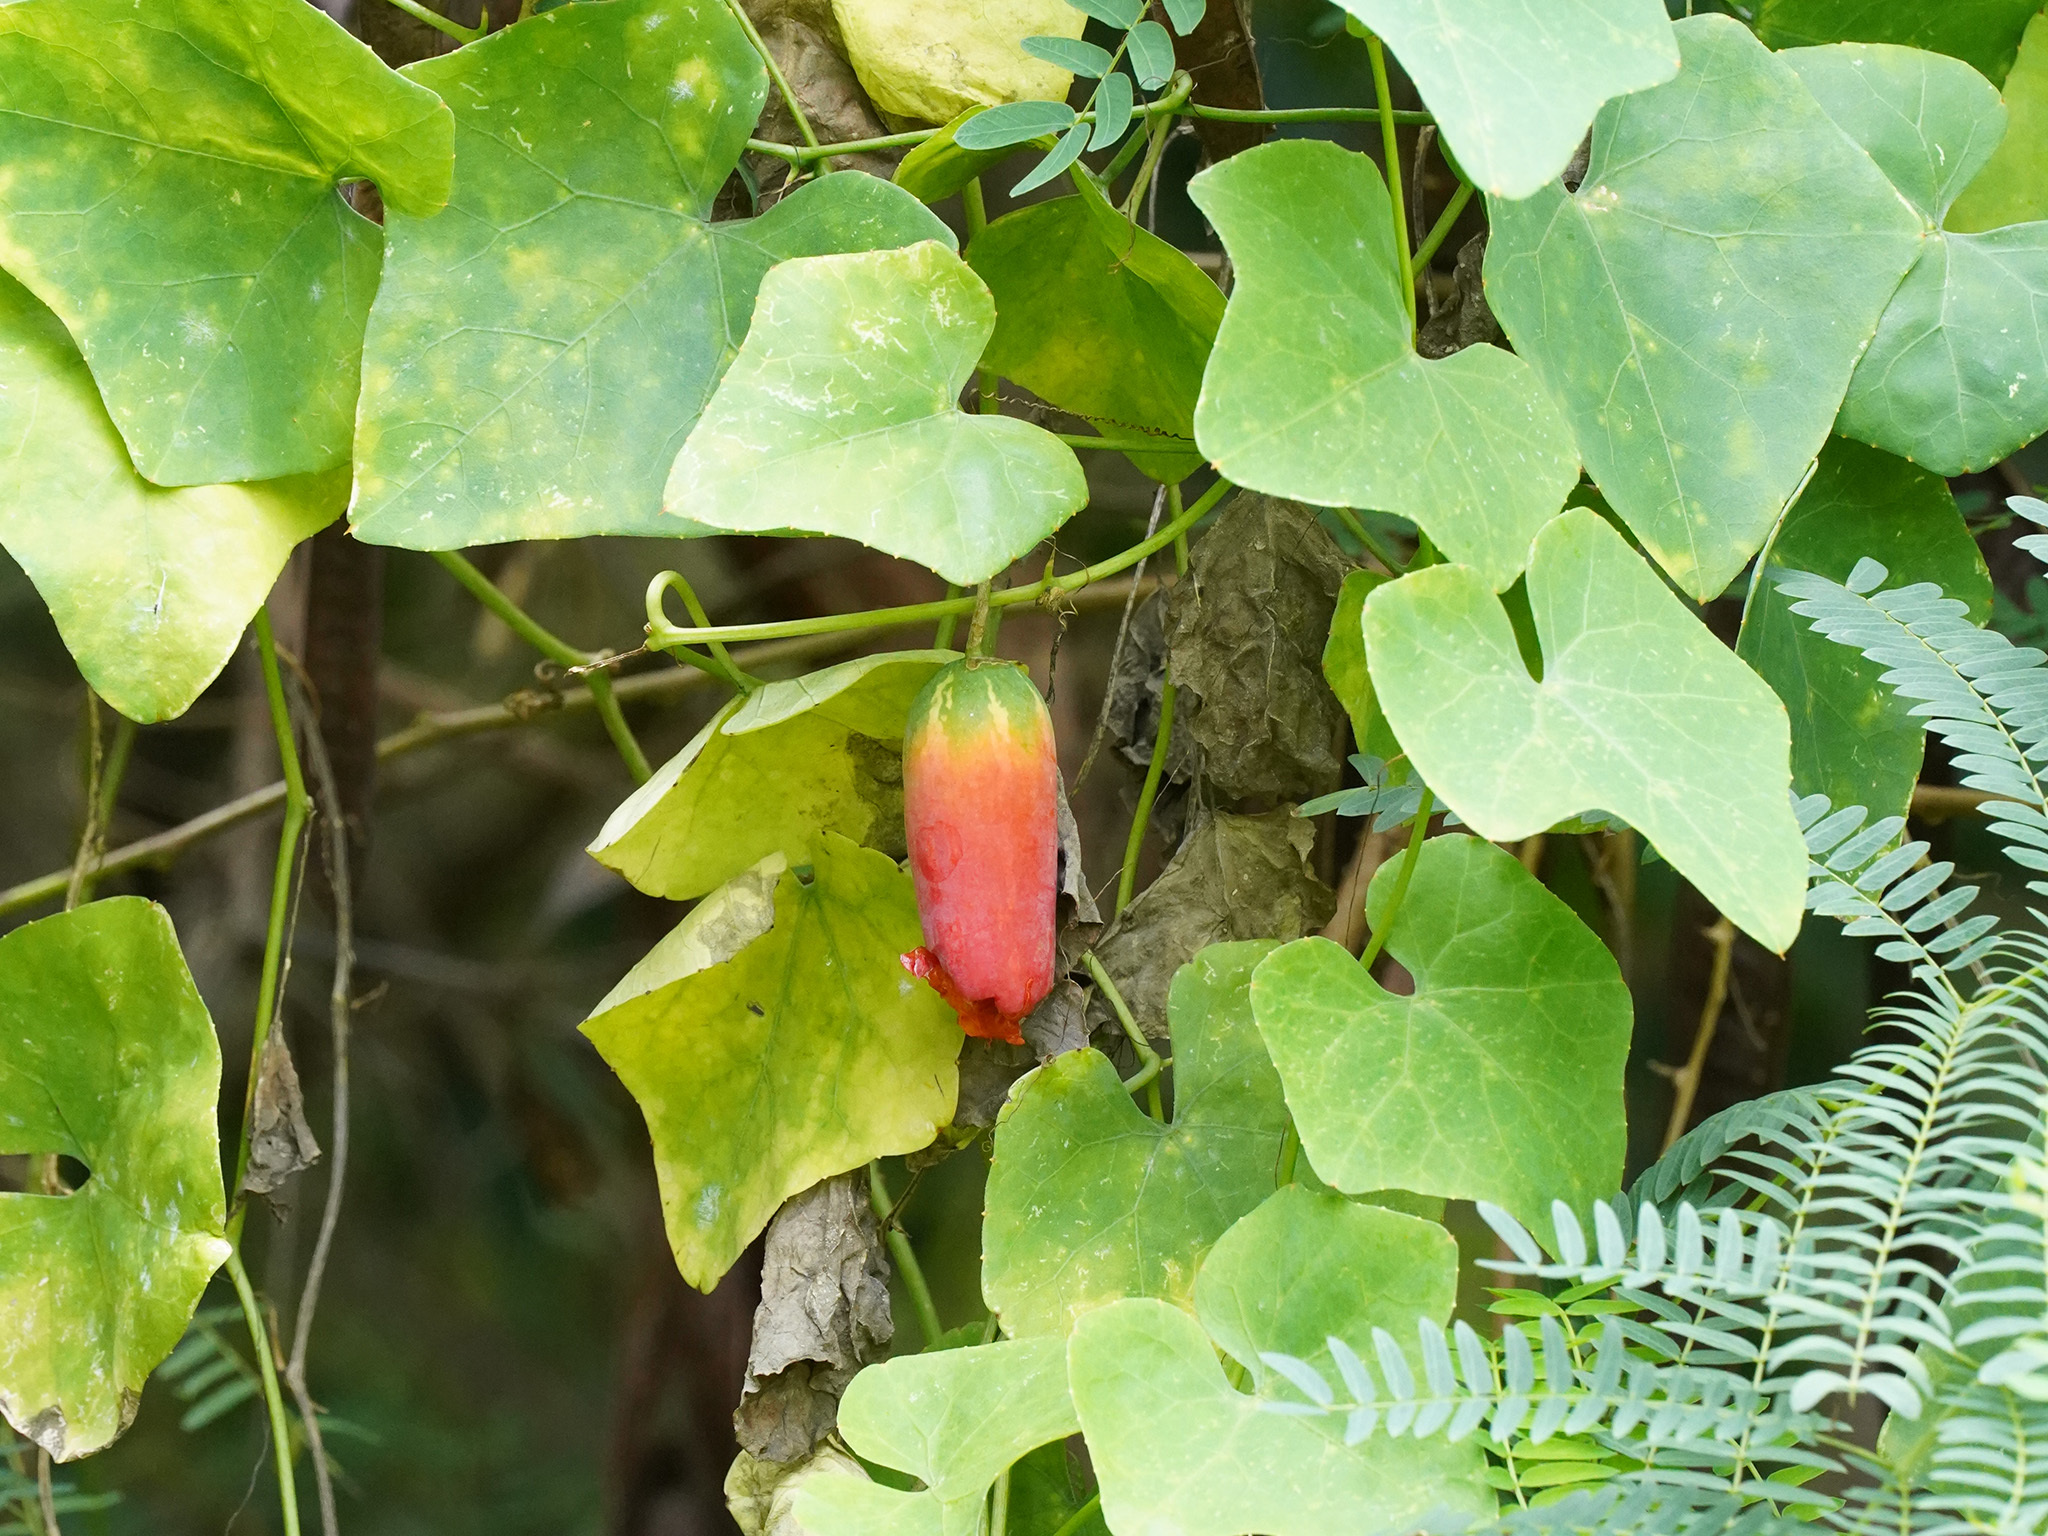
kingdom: Plantae
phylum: Tracheophyta
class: Magnoliopsida
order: Cucurbitales
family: Cucurbitaceae
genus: Coccinia
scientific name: Coccinia grandis
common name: Ivy gourd
